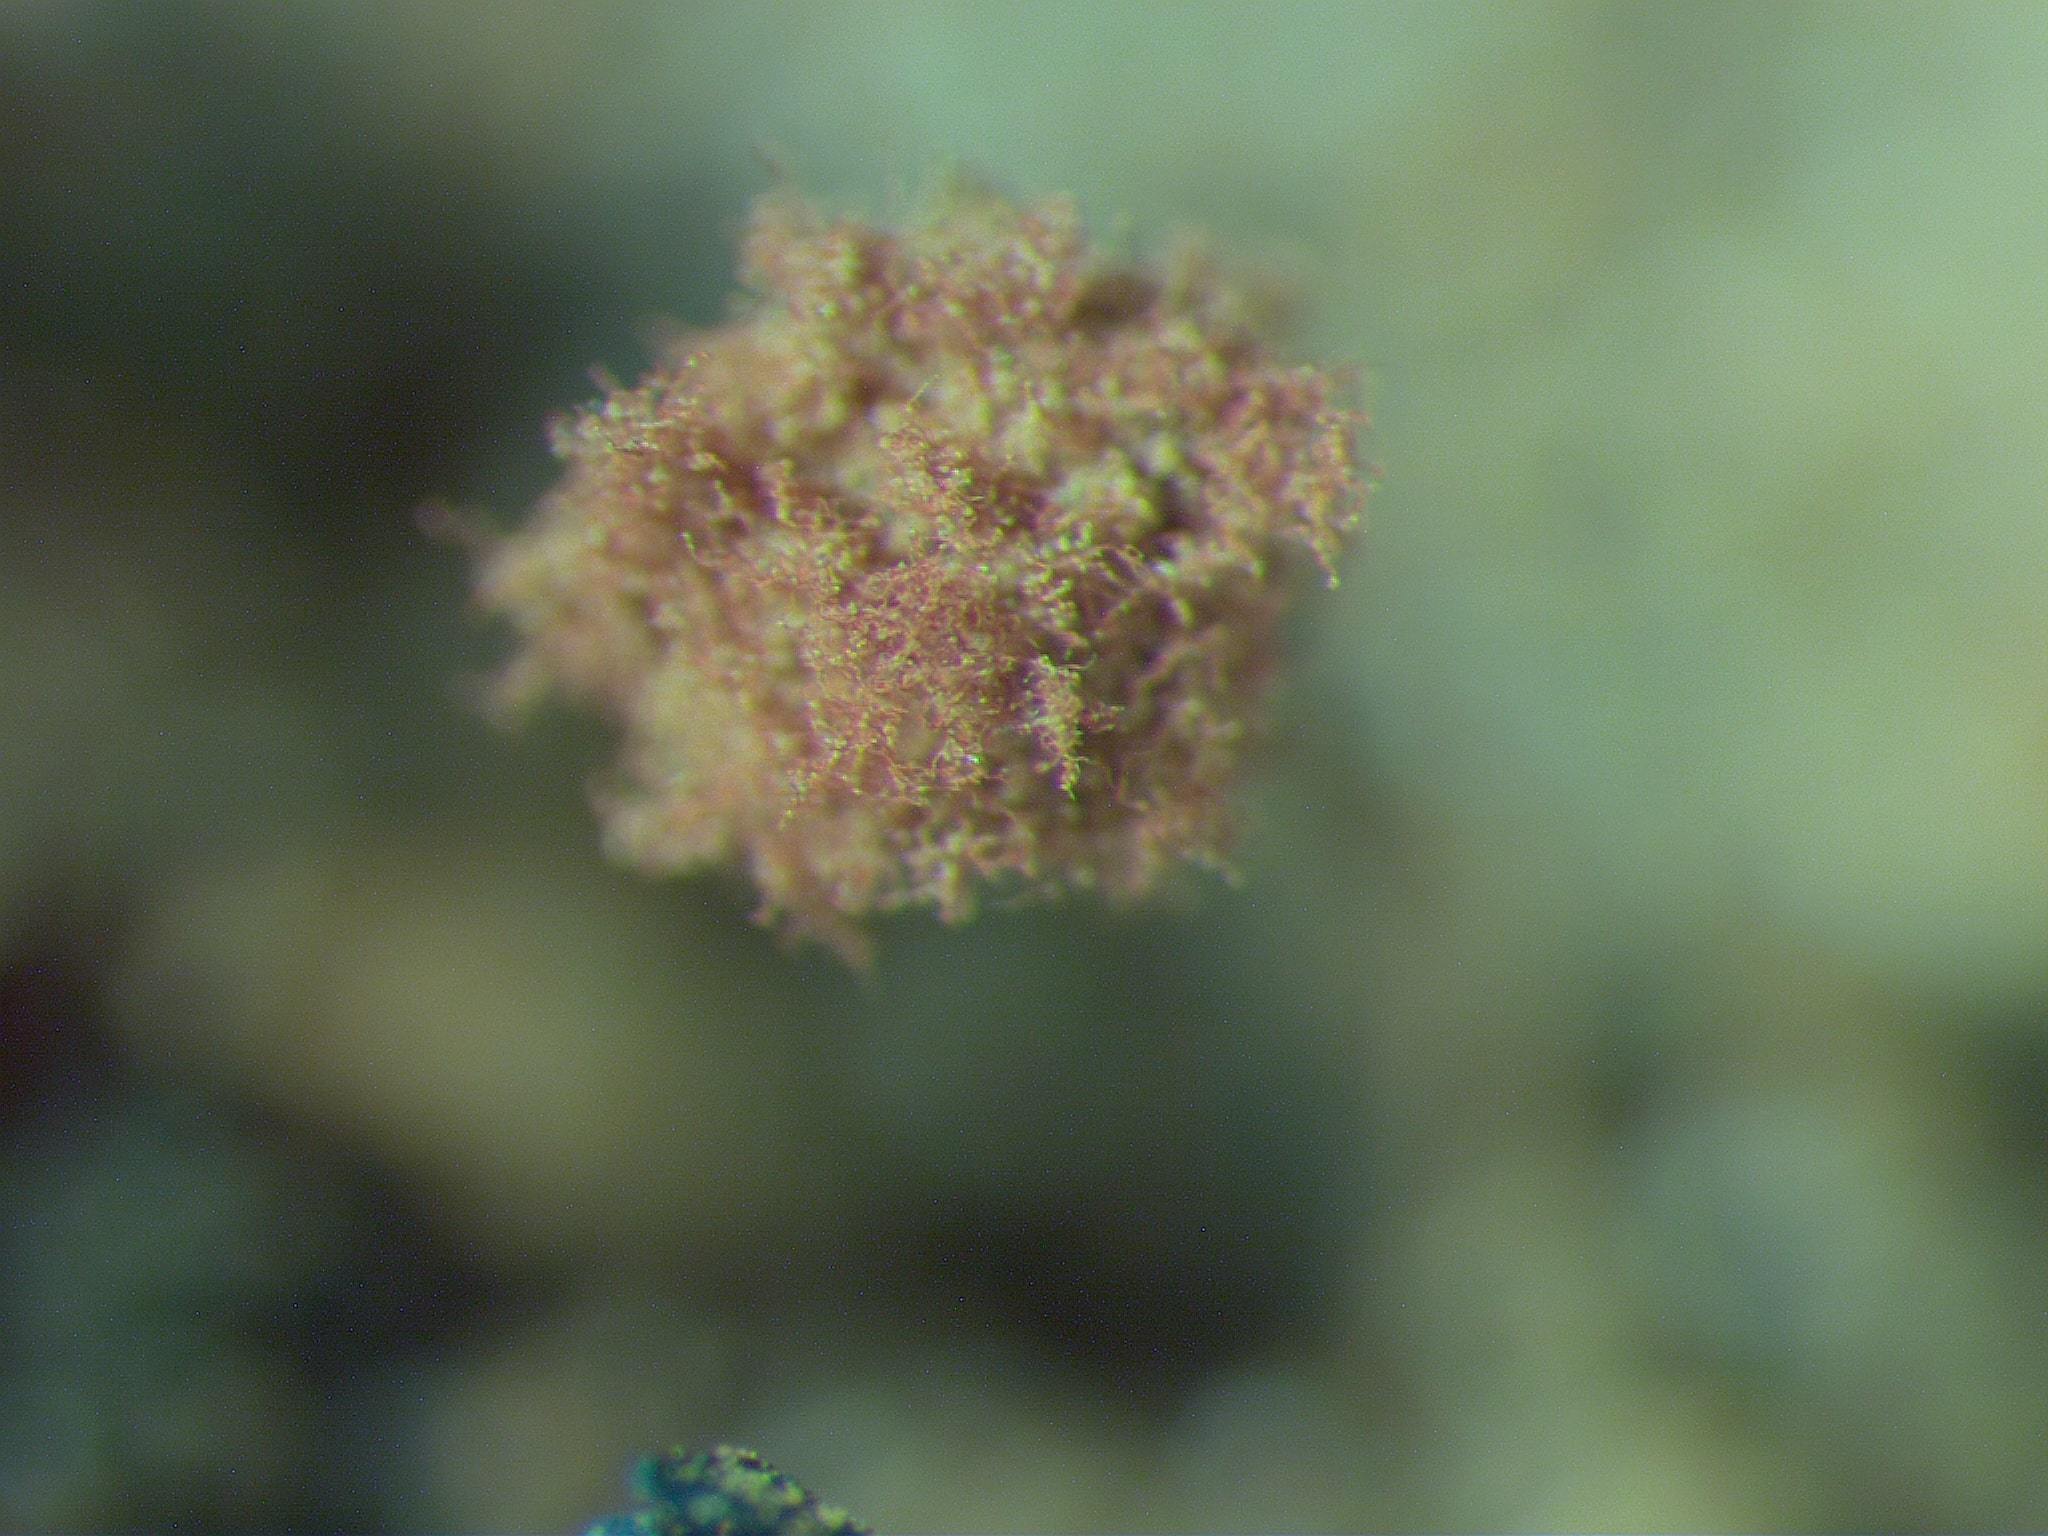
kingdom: Protozoa
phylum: Mycetozoa
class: Myxomycetes
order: Trichiales
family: Trichiaceae
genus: Metatrichia
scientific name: Metatrichia floriformis
